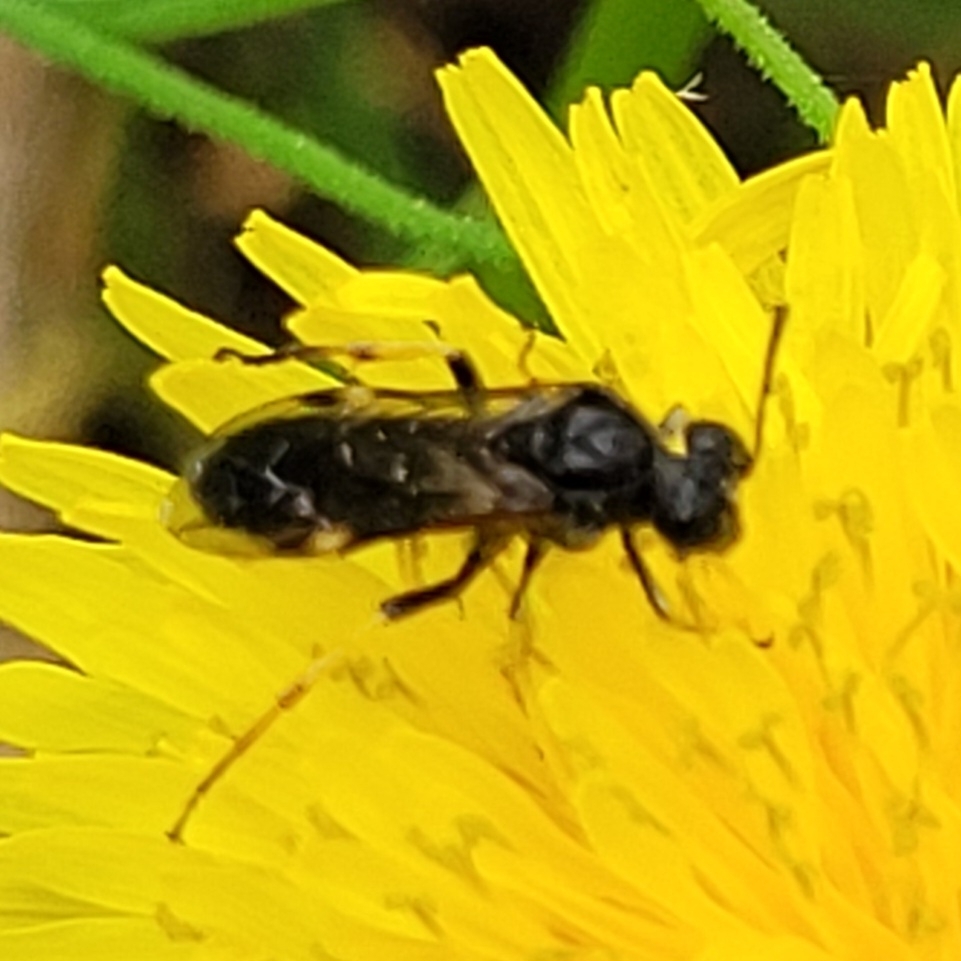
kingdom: Animalia
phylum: Arthropoda
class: Insecta
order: Hymenoptera
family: Tenthredinidae
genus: Tenthredo
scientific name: Tenthredo koehleri
